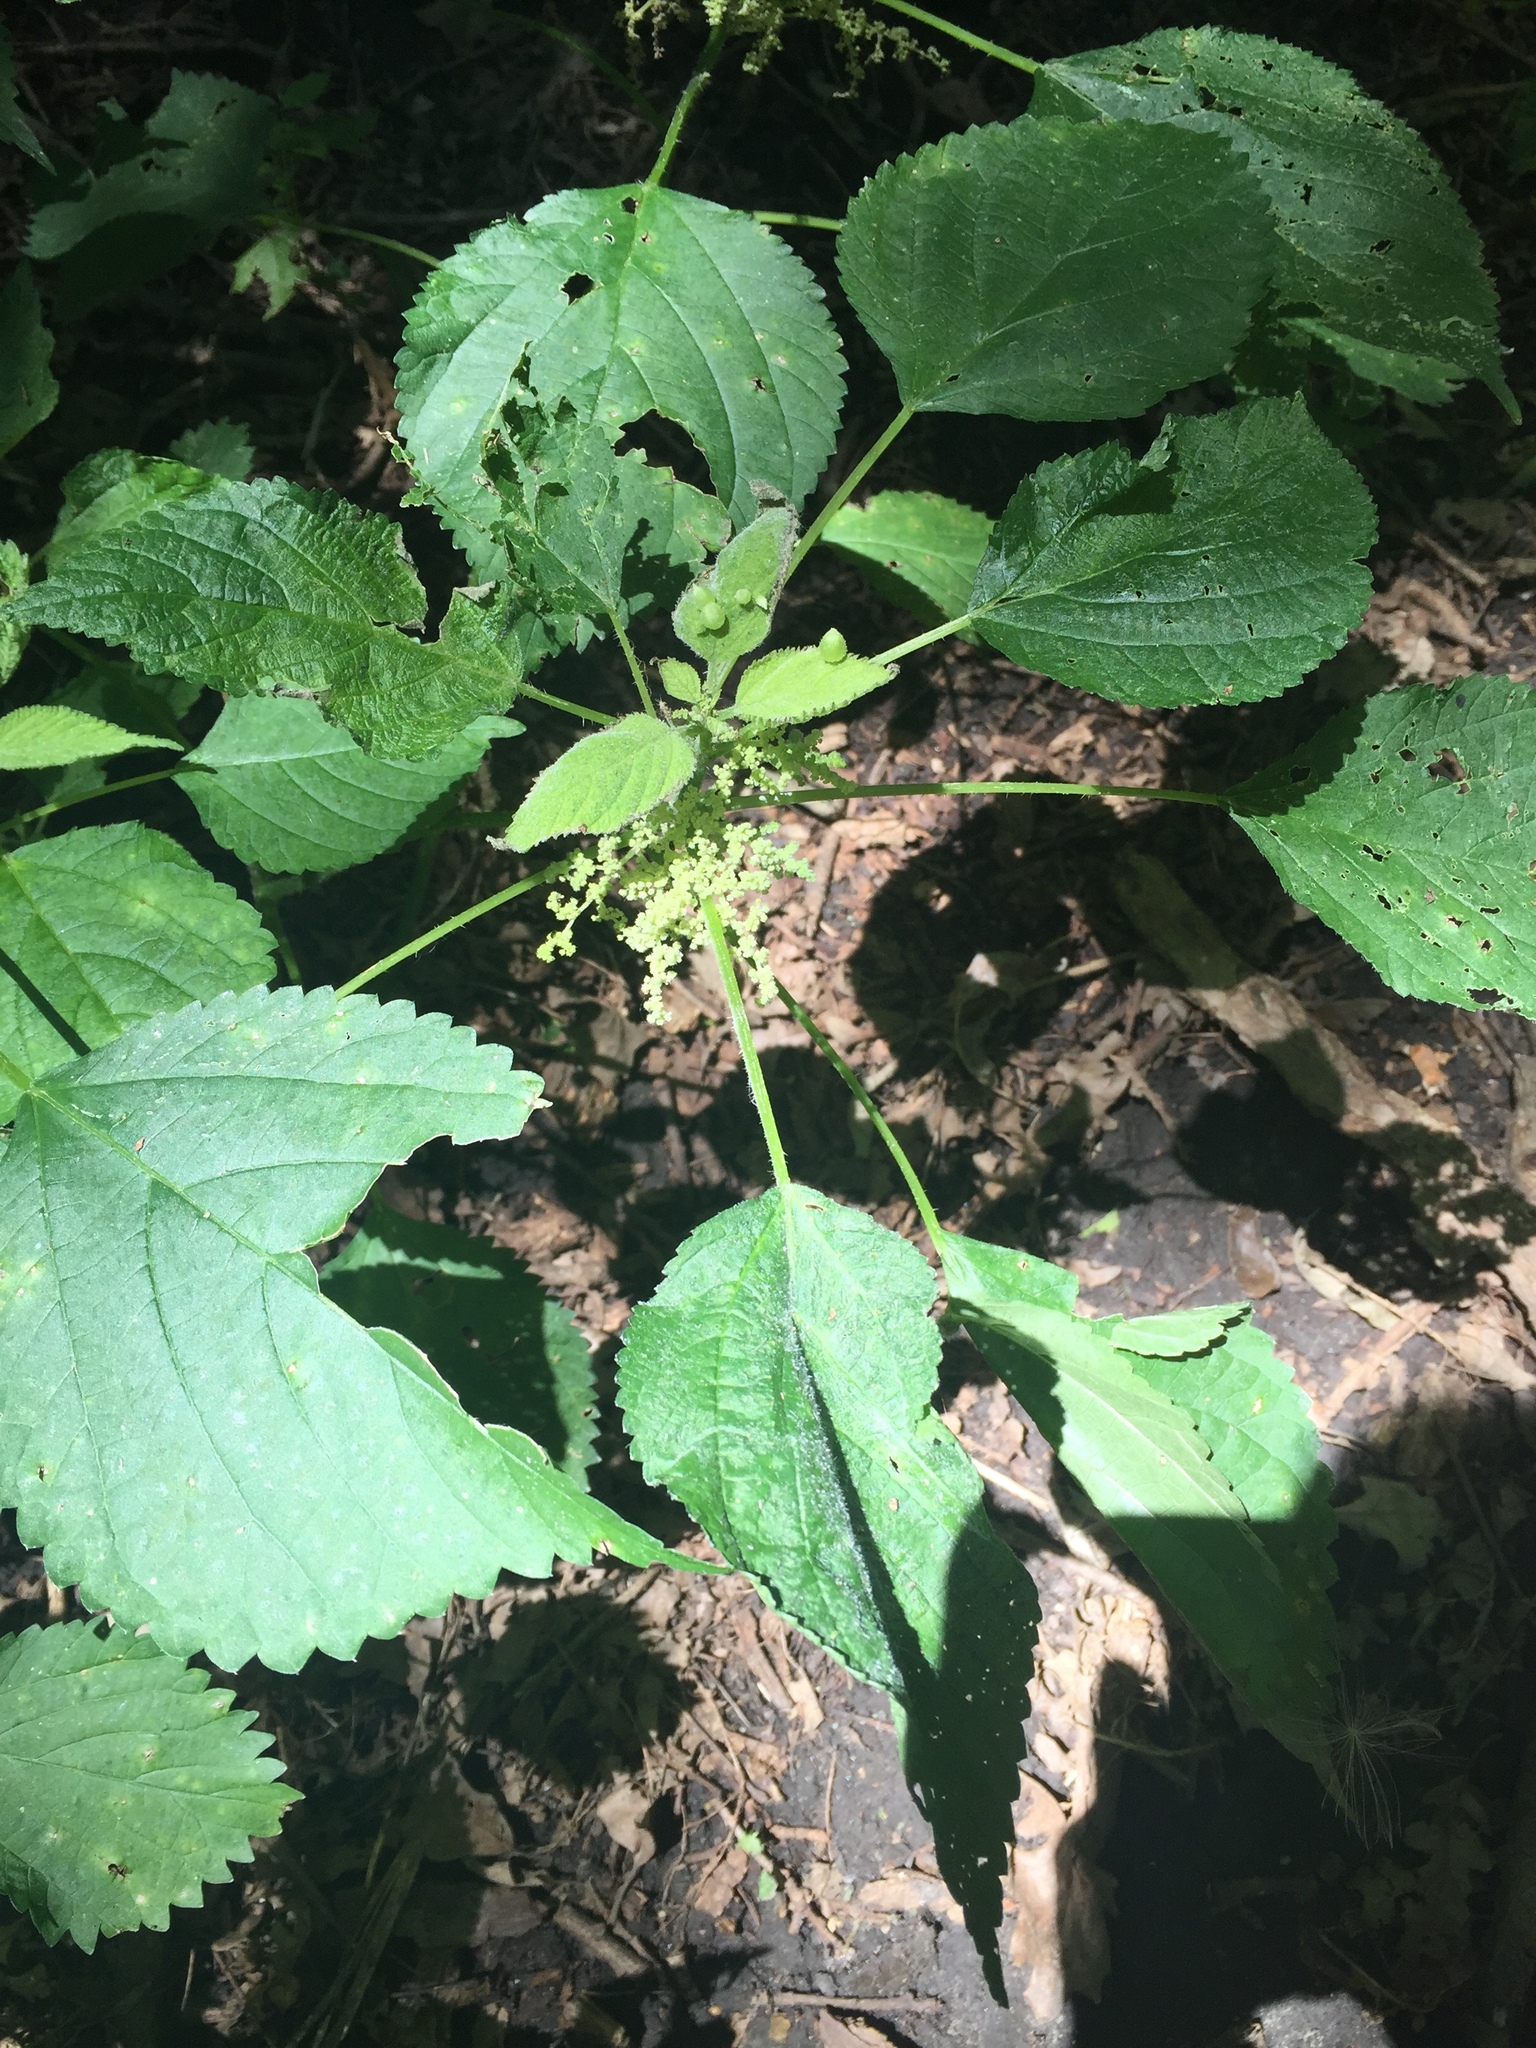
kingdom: Plantae
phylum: Tracheophyta
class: Magnoliopsida
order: Rosales
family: Urticaceae
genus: Laportea
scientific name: Laportea canadensis
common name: Canada nettle
